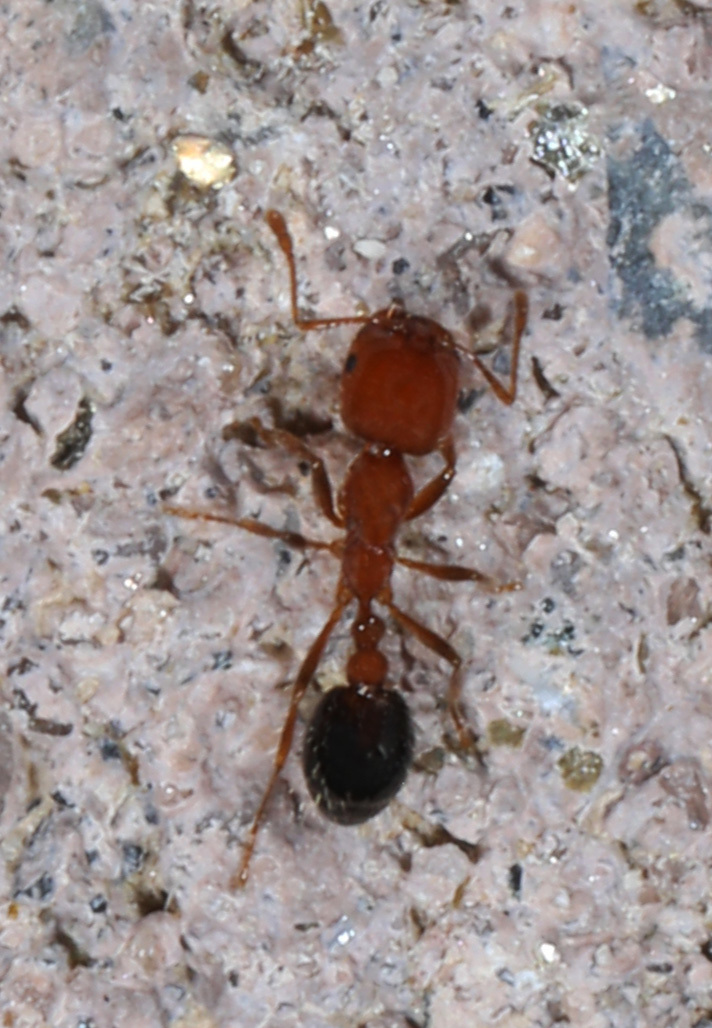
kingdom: Animalia
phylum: Arthropoda
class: Insecta
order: Hymenoptera
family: Formicidae
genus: Solenopsis
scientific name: Solenopsis xyloni
